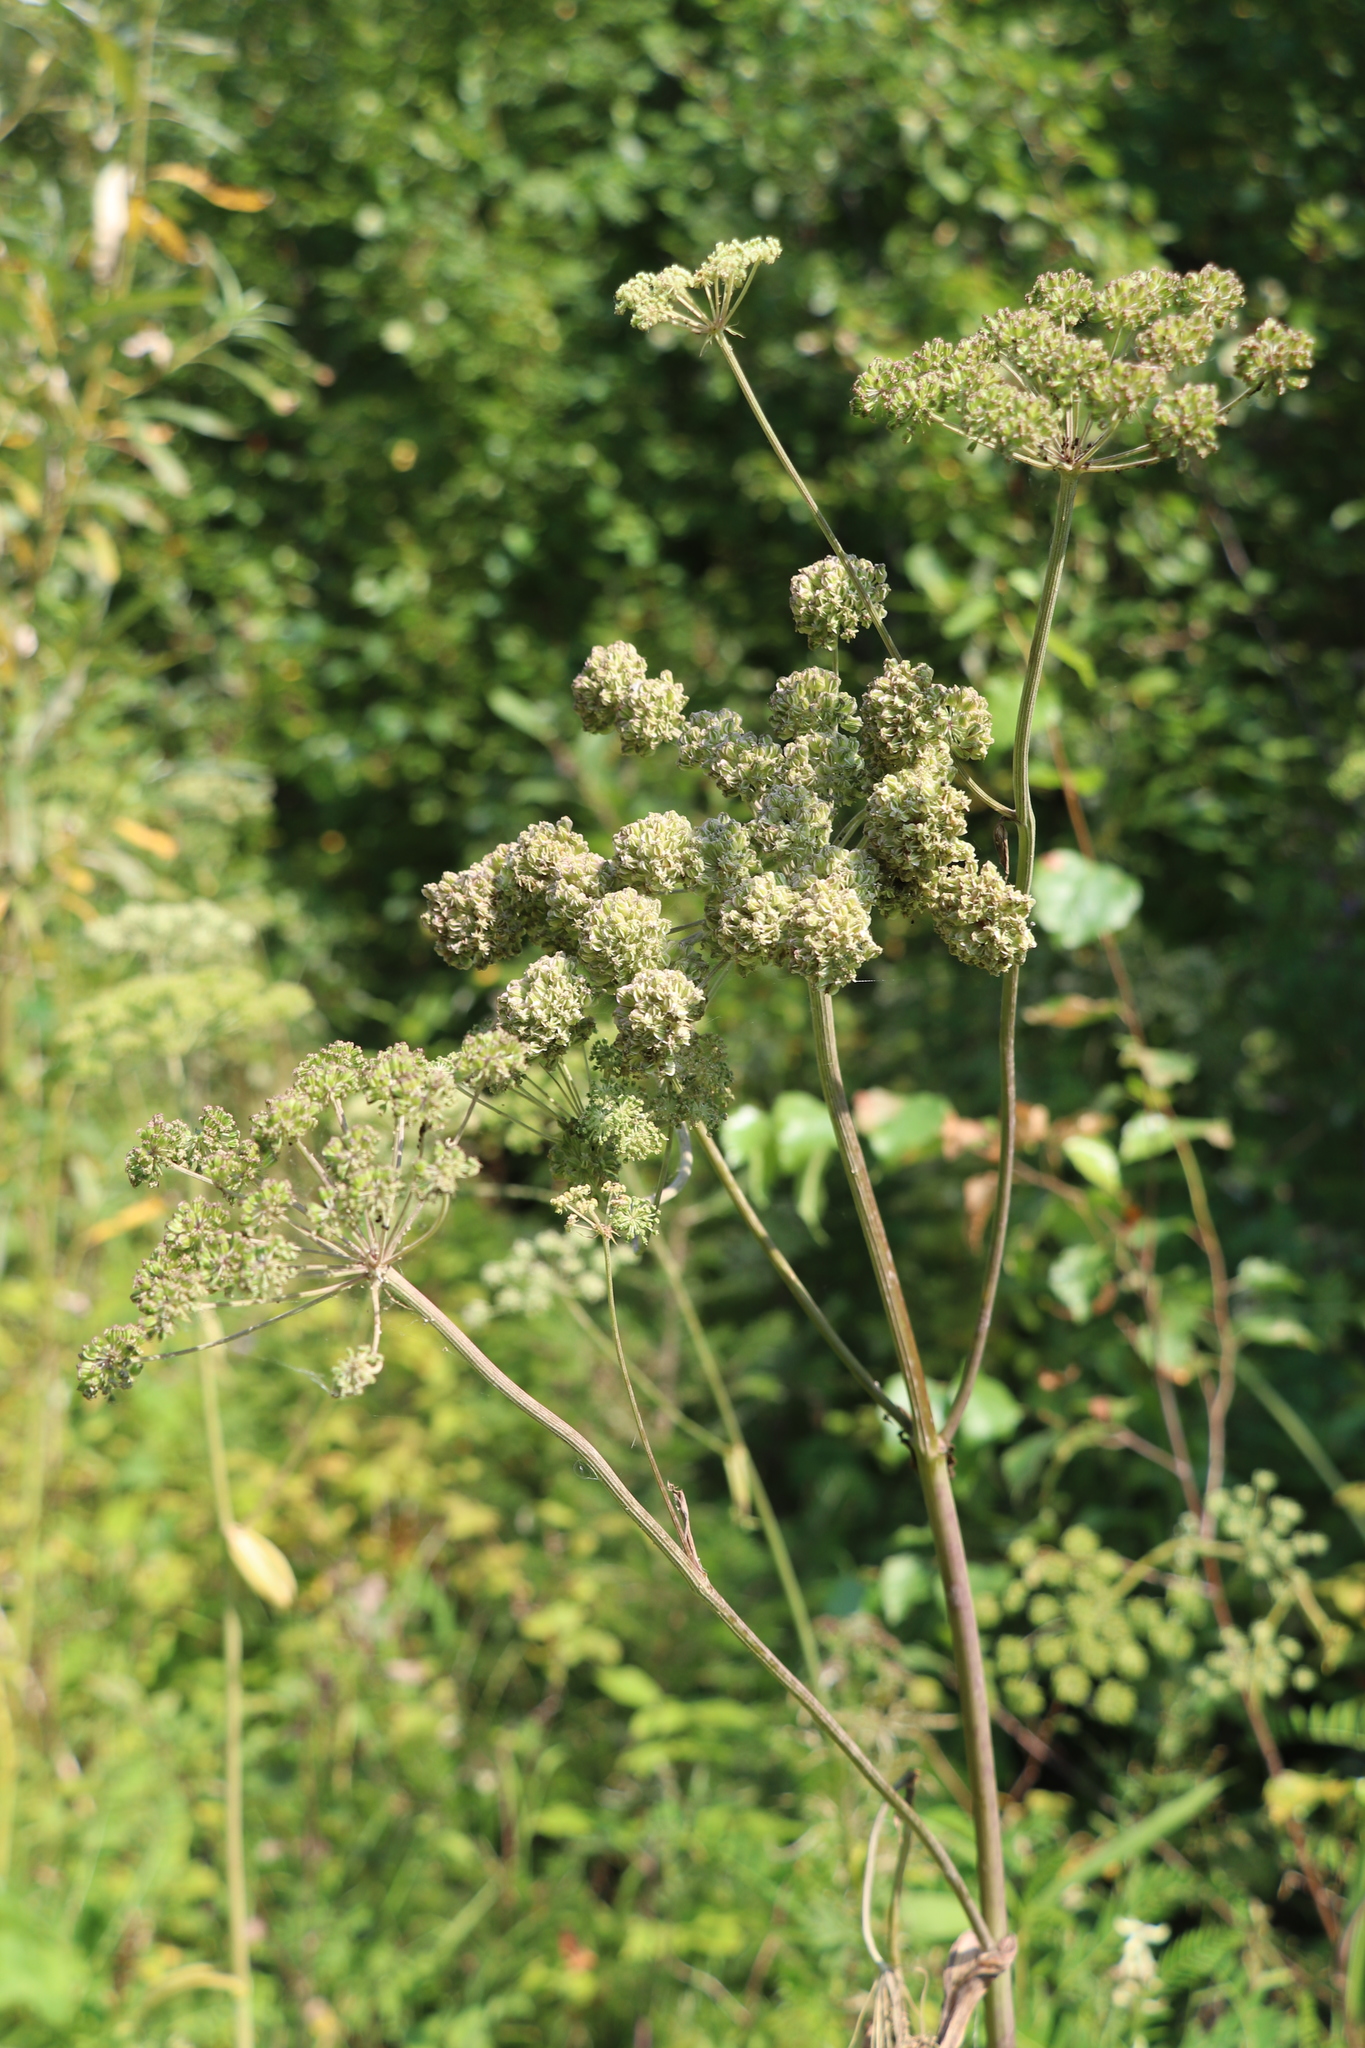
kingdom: Plantae
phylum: Tracheophyta
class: Magnoliopsida
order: Apiales
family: Apiaceae
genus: Heracleum
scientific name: Heracleum dissectum
